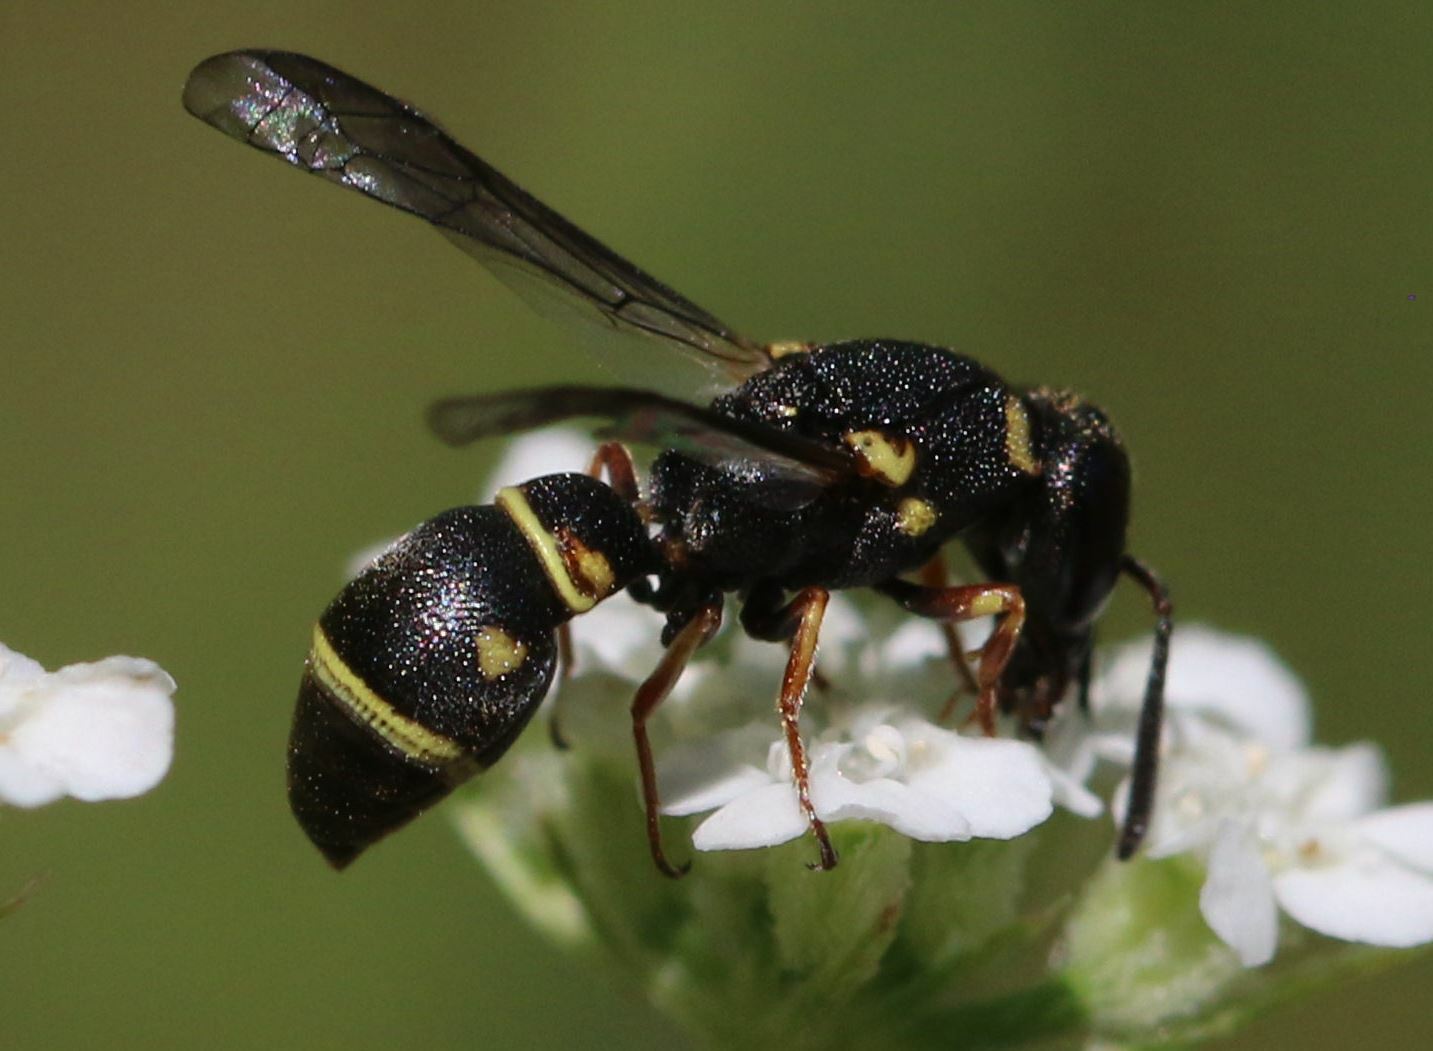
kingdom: Animalia
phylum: Arthropoda
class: Insecta
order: Hymenoptera
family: Eumenidae
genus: Leptochilus
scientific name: Leptochilus regulus
